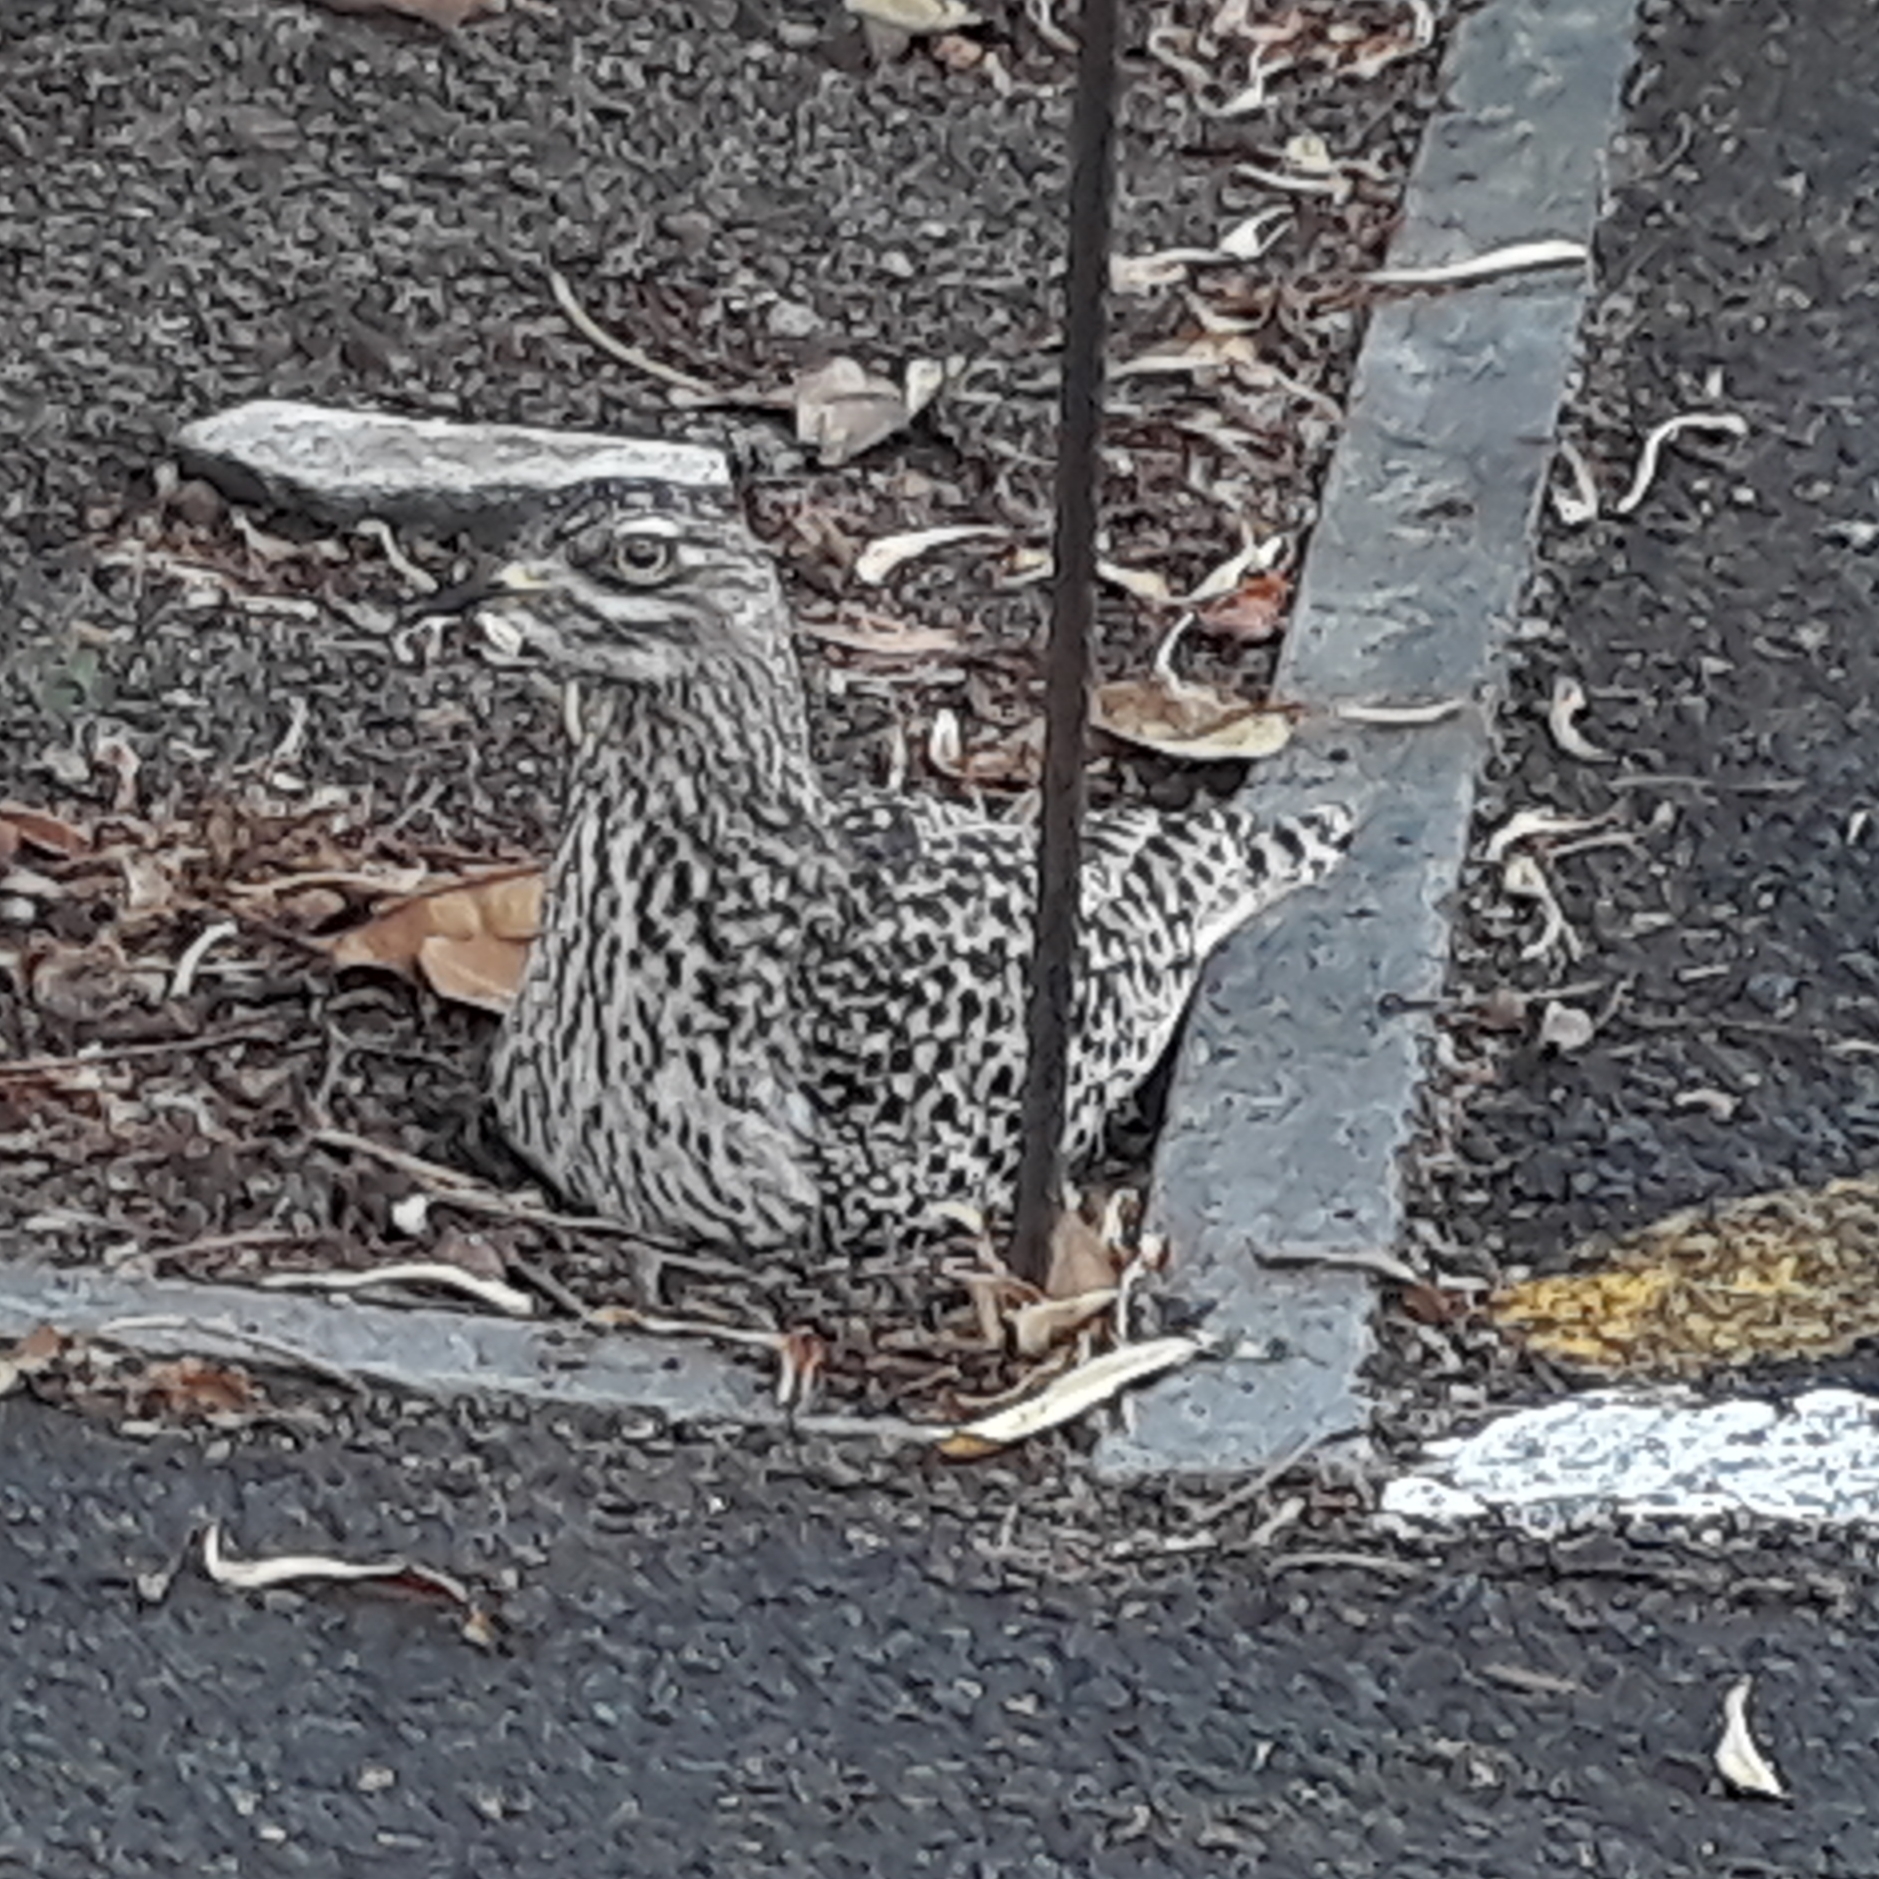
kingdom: Animalia
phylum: Chordata
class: Aves
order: Charadriiformes
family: Burhinidae
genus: Burhinus
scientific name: Burhinus capensis
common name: Spotted thick-knee
